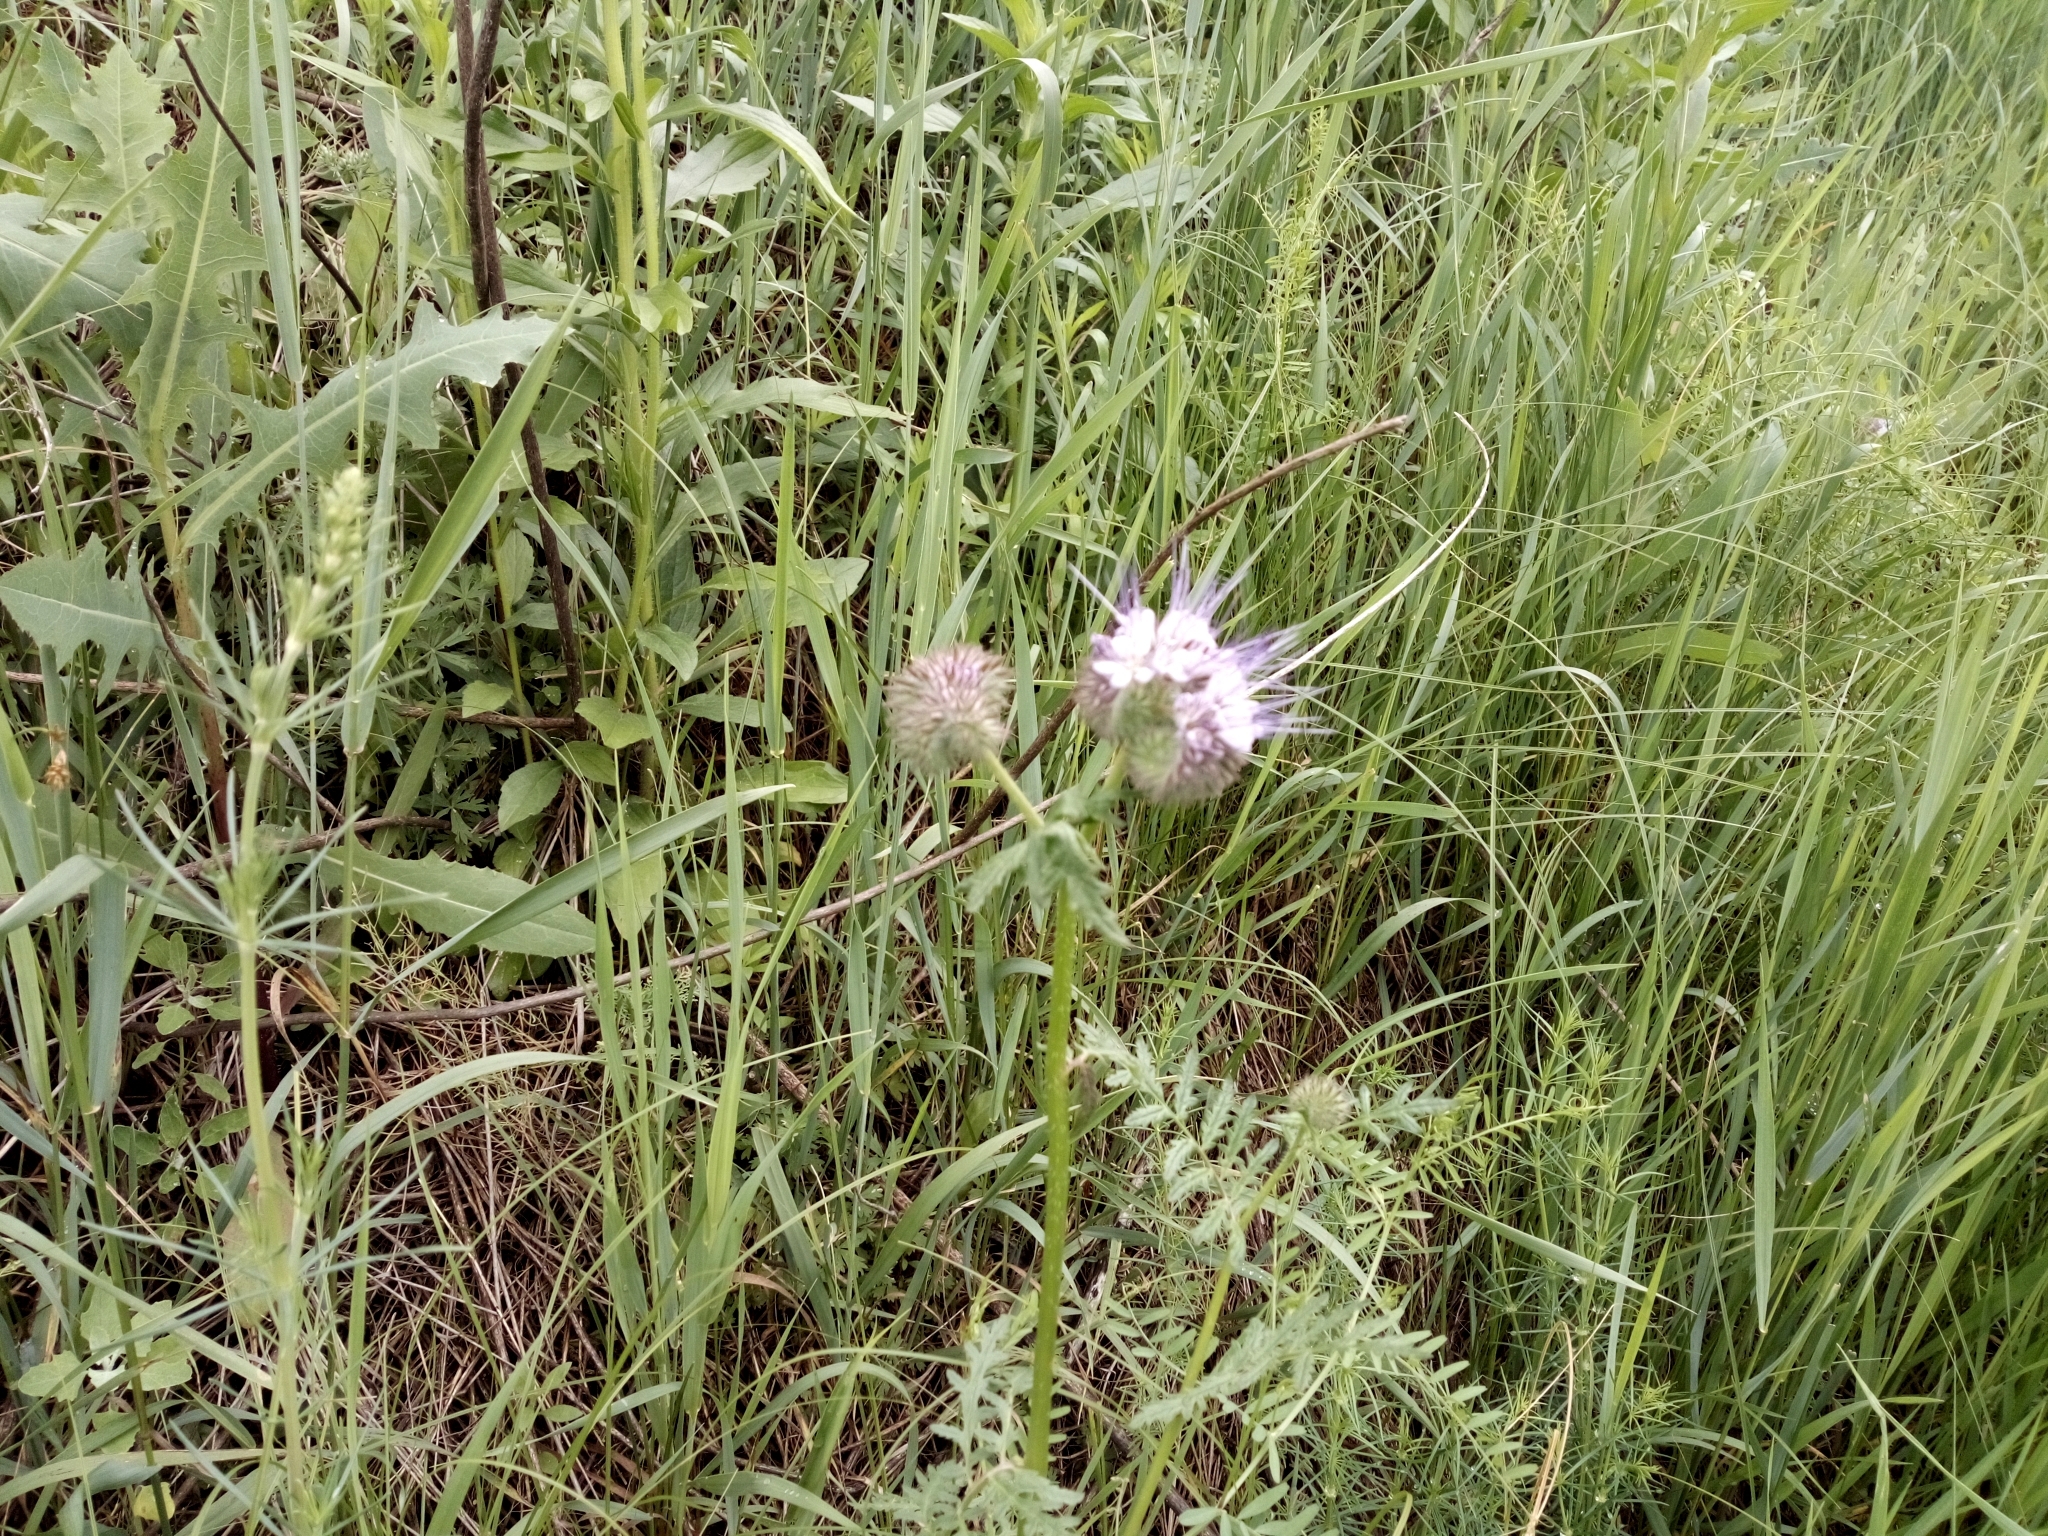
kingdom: Plantae
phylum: Tracheophyta
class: Magnoliopsida
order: Boraginales
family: Hydrophyllaceae
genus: Phacelia
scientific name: Phacelia tanacetifolia
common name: Phacelia
